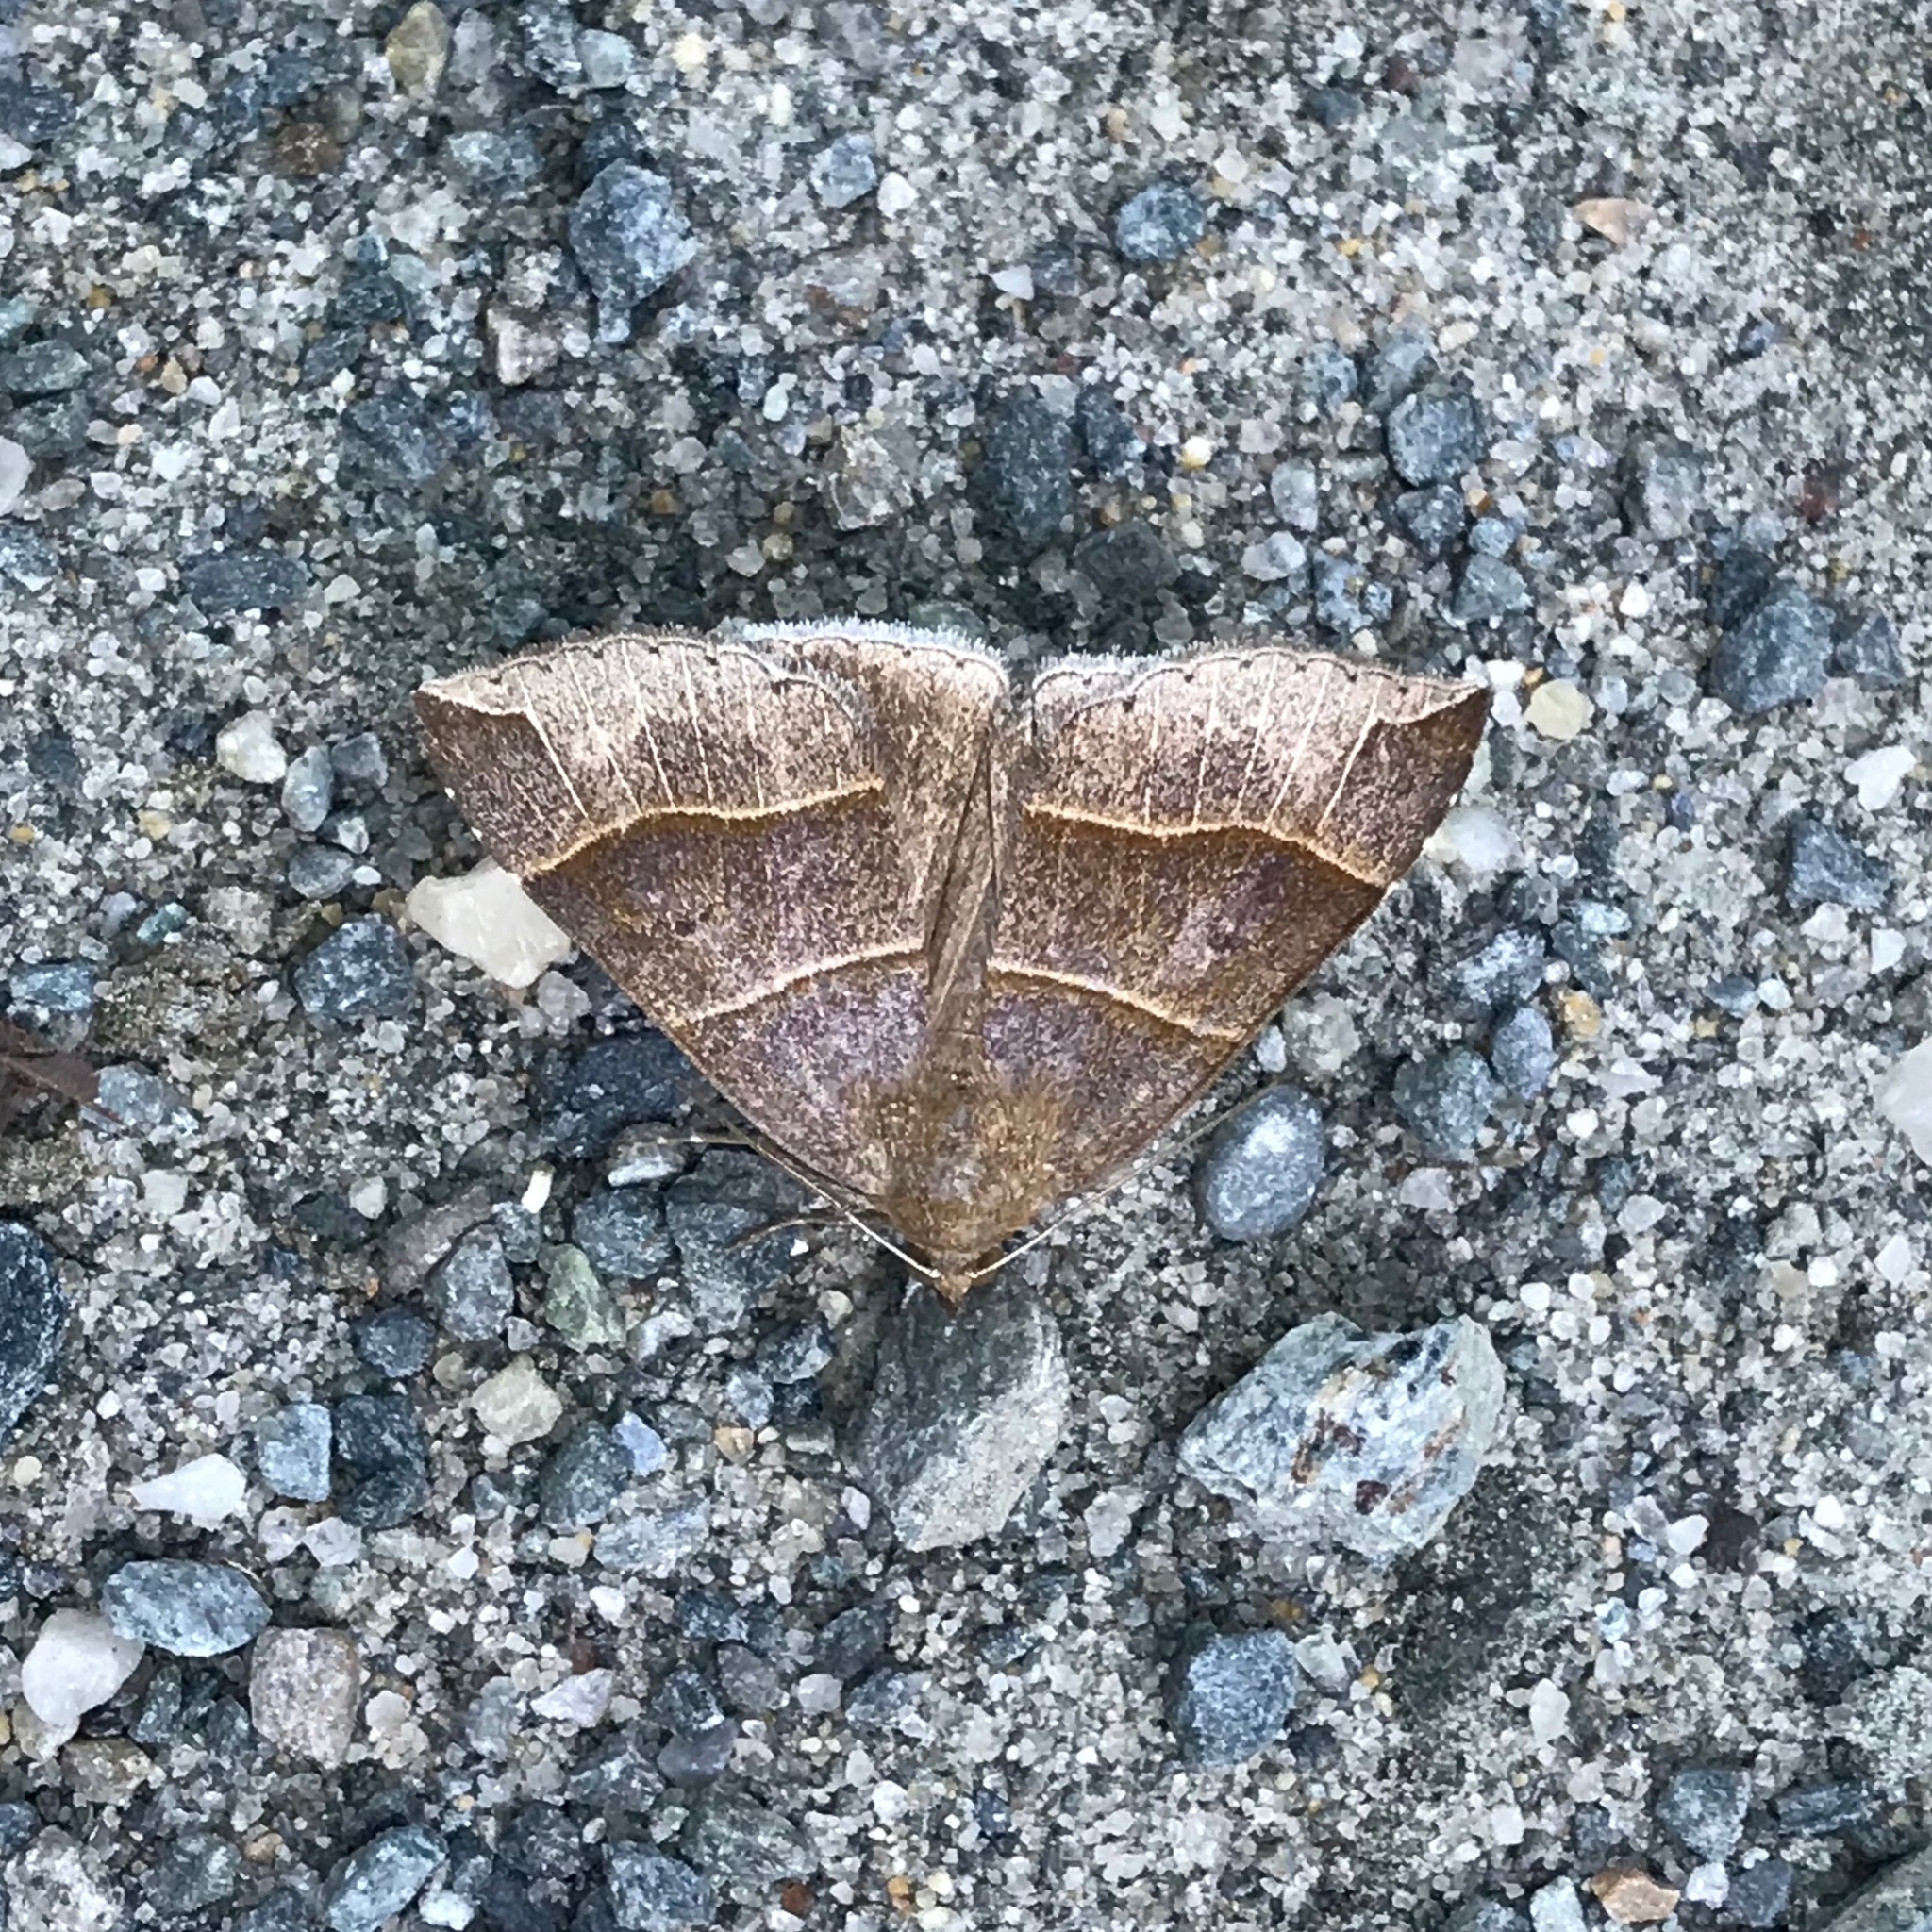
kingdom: Animalia
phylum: Arthropoda
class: Insecta
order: Lepidoptera
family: Erebidae
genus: Parallelia
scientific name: Parallelia bistriaris
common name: Maple looper moth
